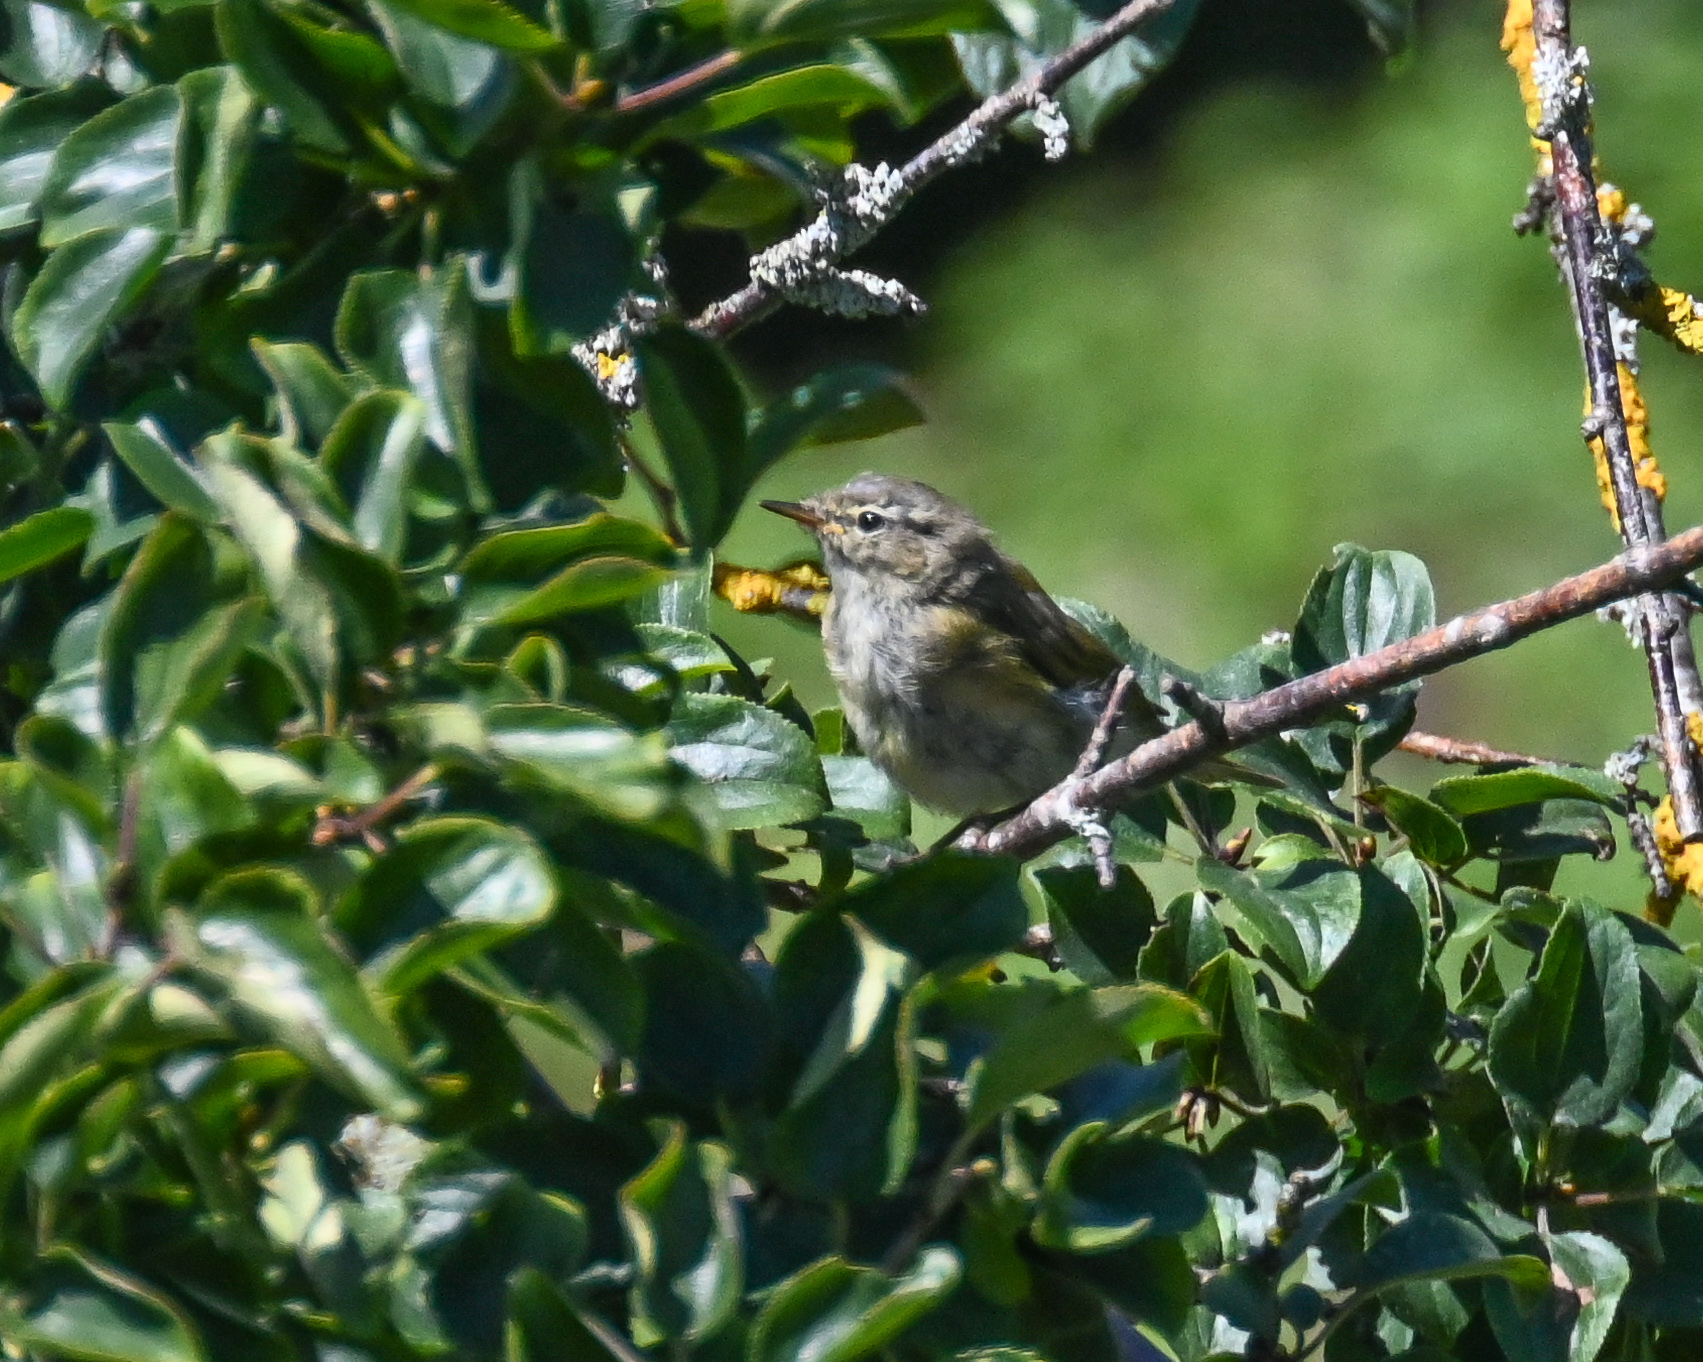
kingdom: Animalia
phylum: Chordata
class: Aves
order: Passeriformes
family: Phylloscopidae
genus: Phylloscopus
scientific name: Phylloscopus collybita
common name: Common chiffchaff
